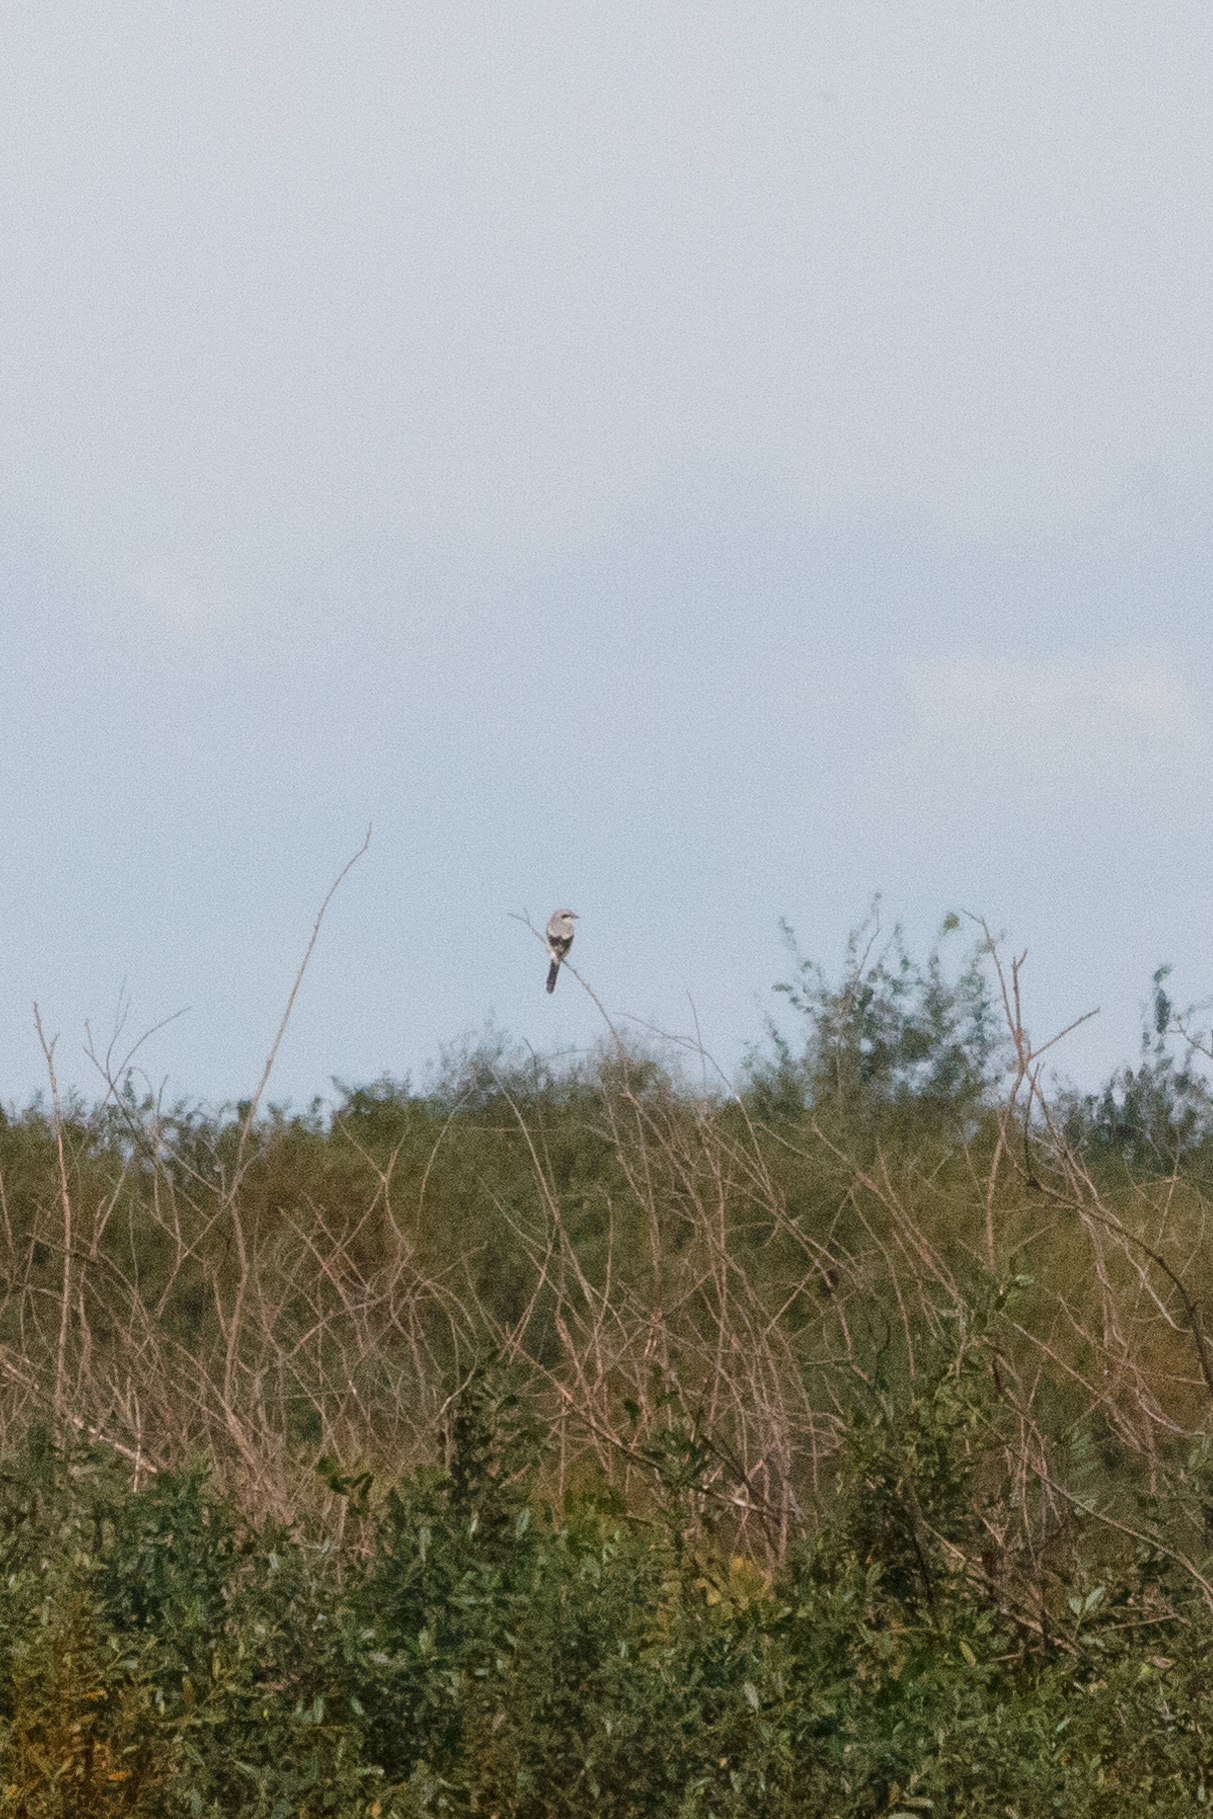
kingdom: Animalia
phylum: Chordata
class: Aves
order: Passeriformes
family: Laniidae
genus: Lanius
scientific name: Lanius excubitor
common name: Great grey shrike
